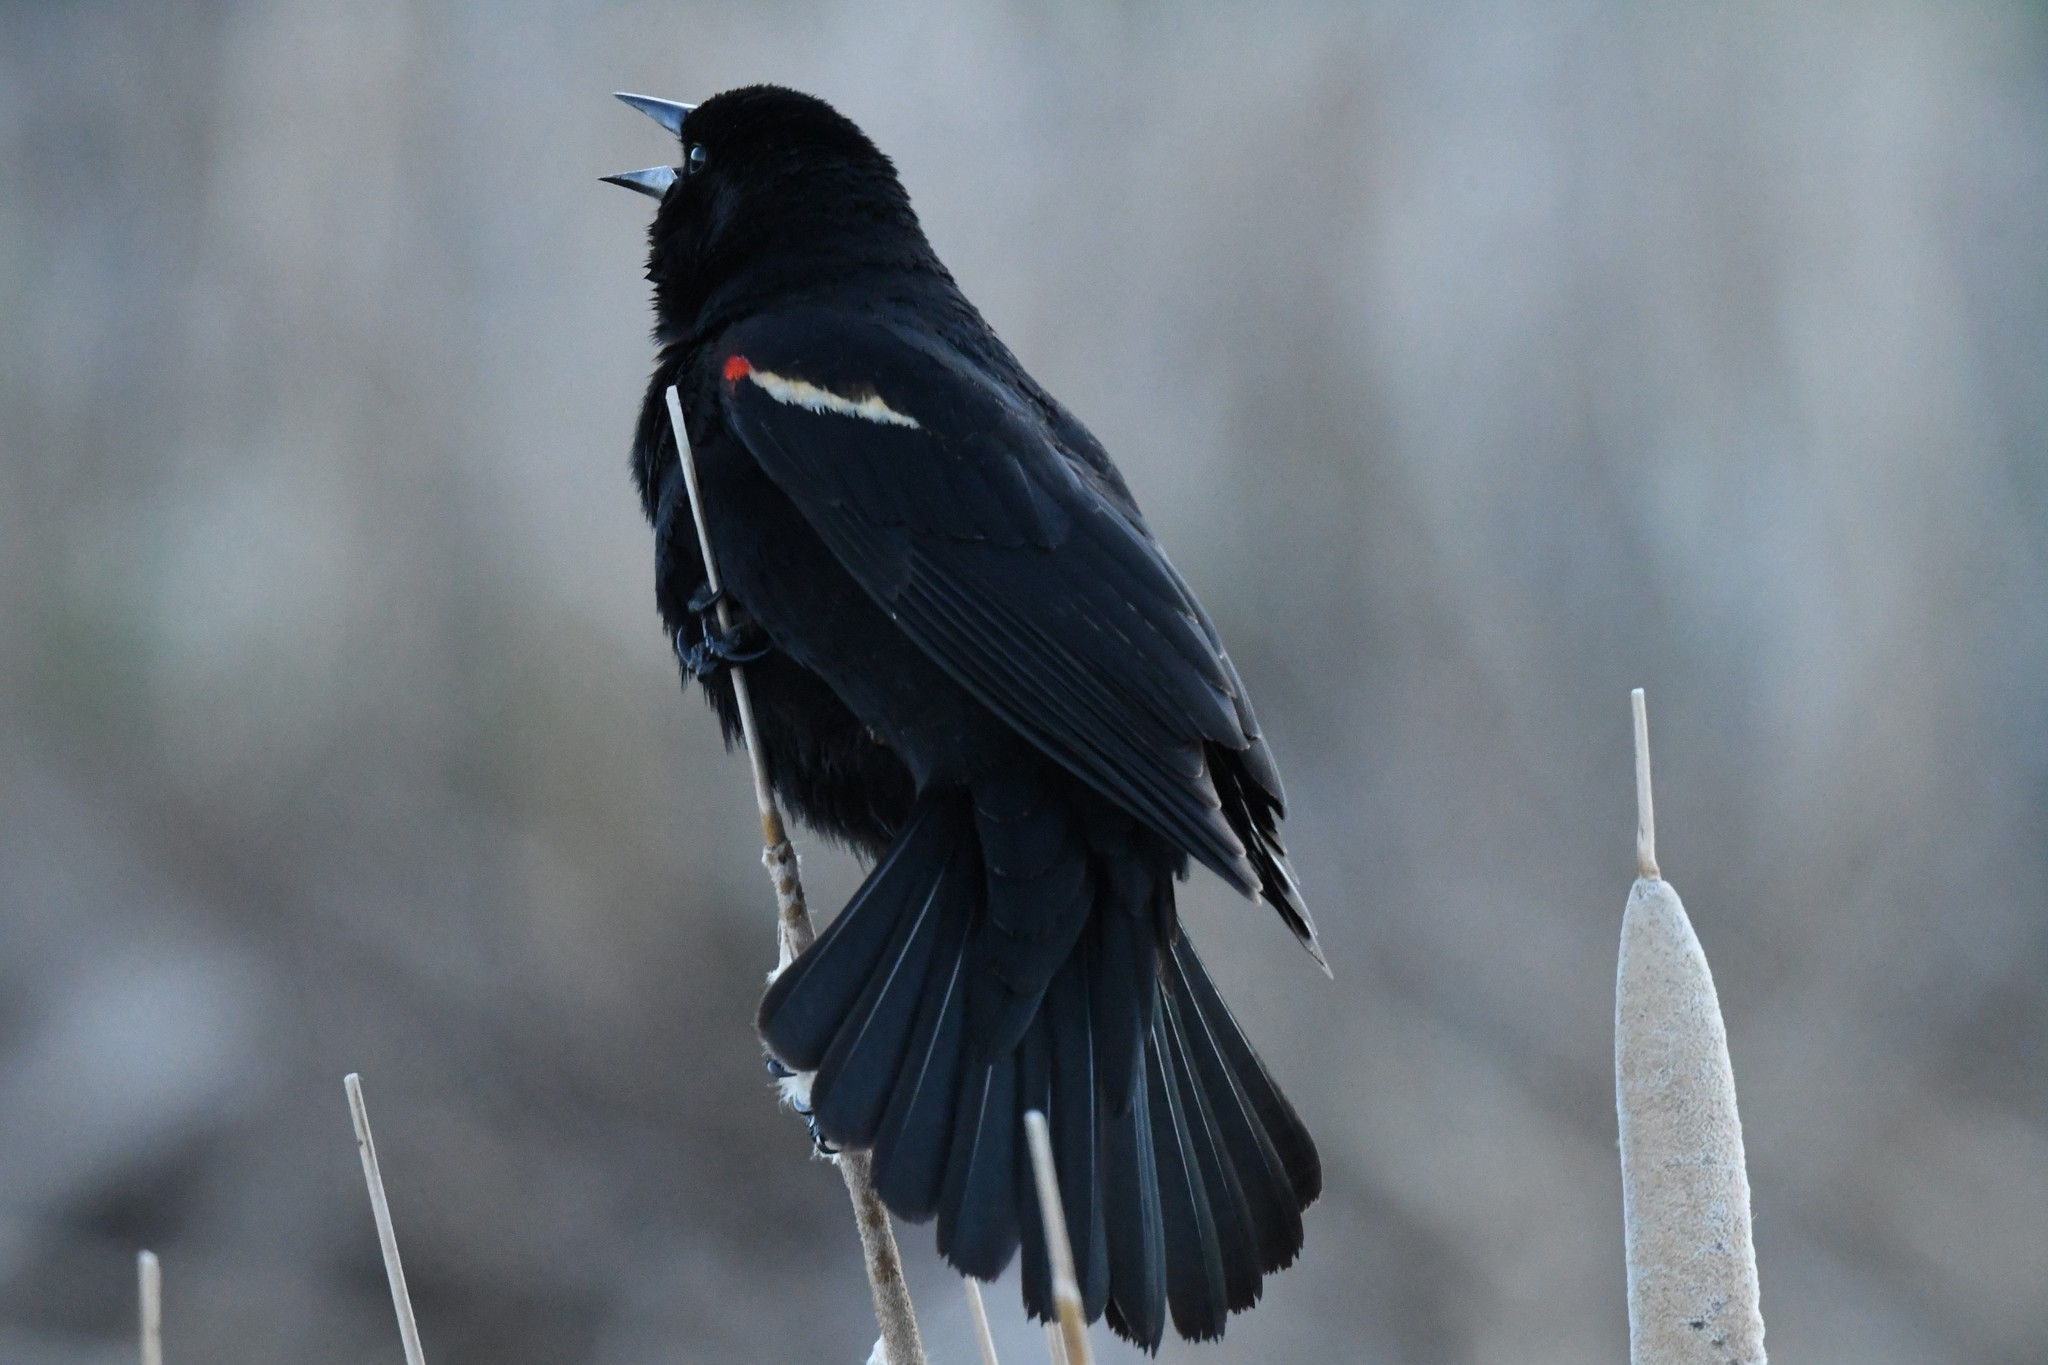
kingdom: Animalia
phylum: Chordata
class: Aves
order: Passeriformes
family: Icteridae
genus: Agelaius
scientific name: Agelaius phoeniceus
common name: Red-winged blackbird
